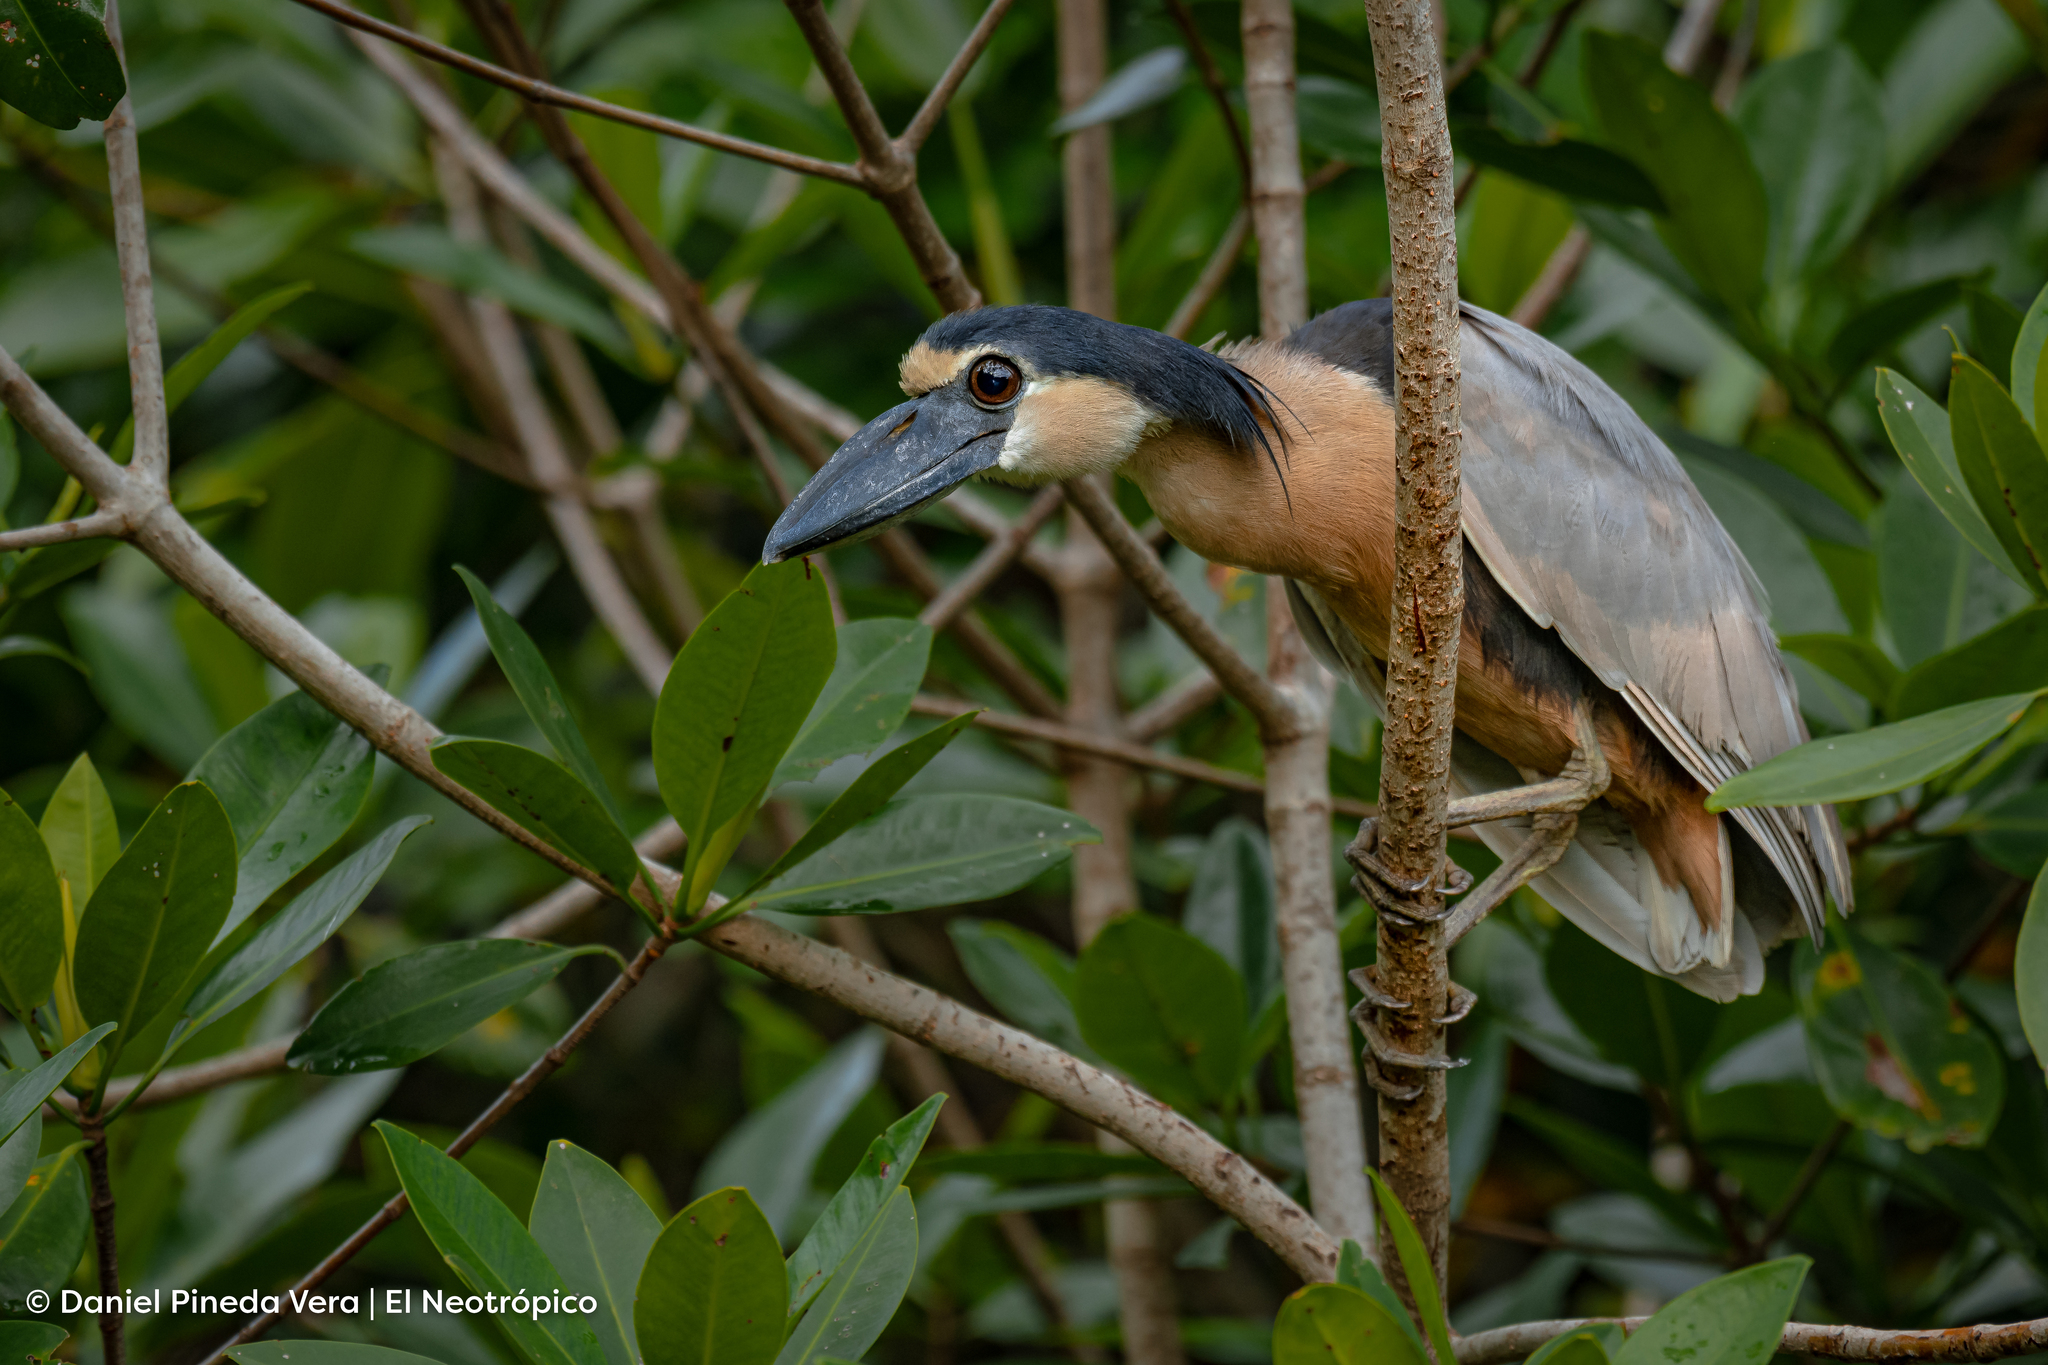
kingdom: Animalia
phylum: Chordata
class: Aves
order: Pelecaniformes
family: Ardeidae
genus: Cochlearius
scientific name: Cochlearius cochlearius
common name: Boat-billed heron
